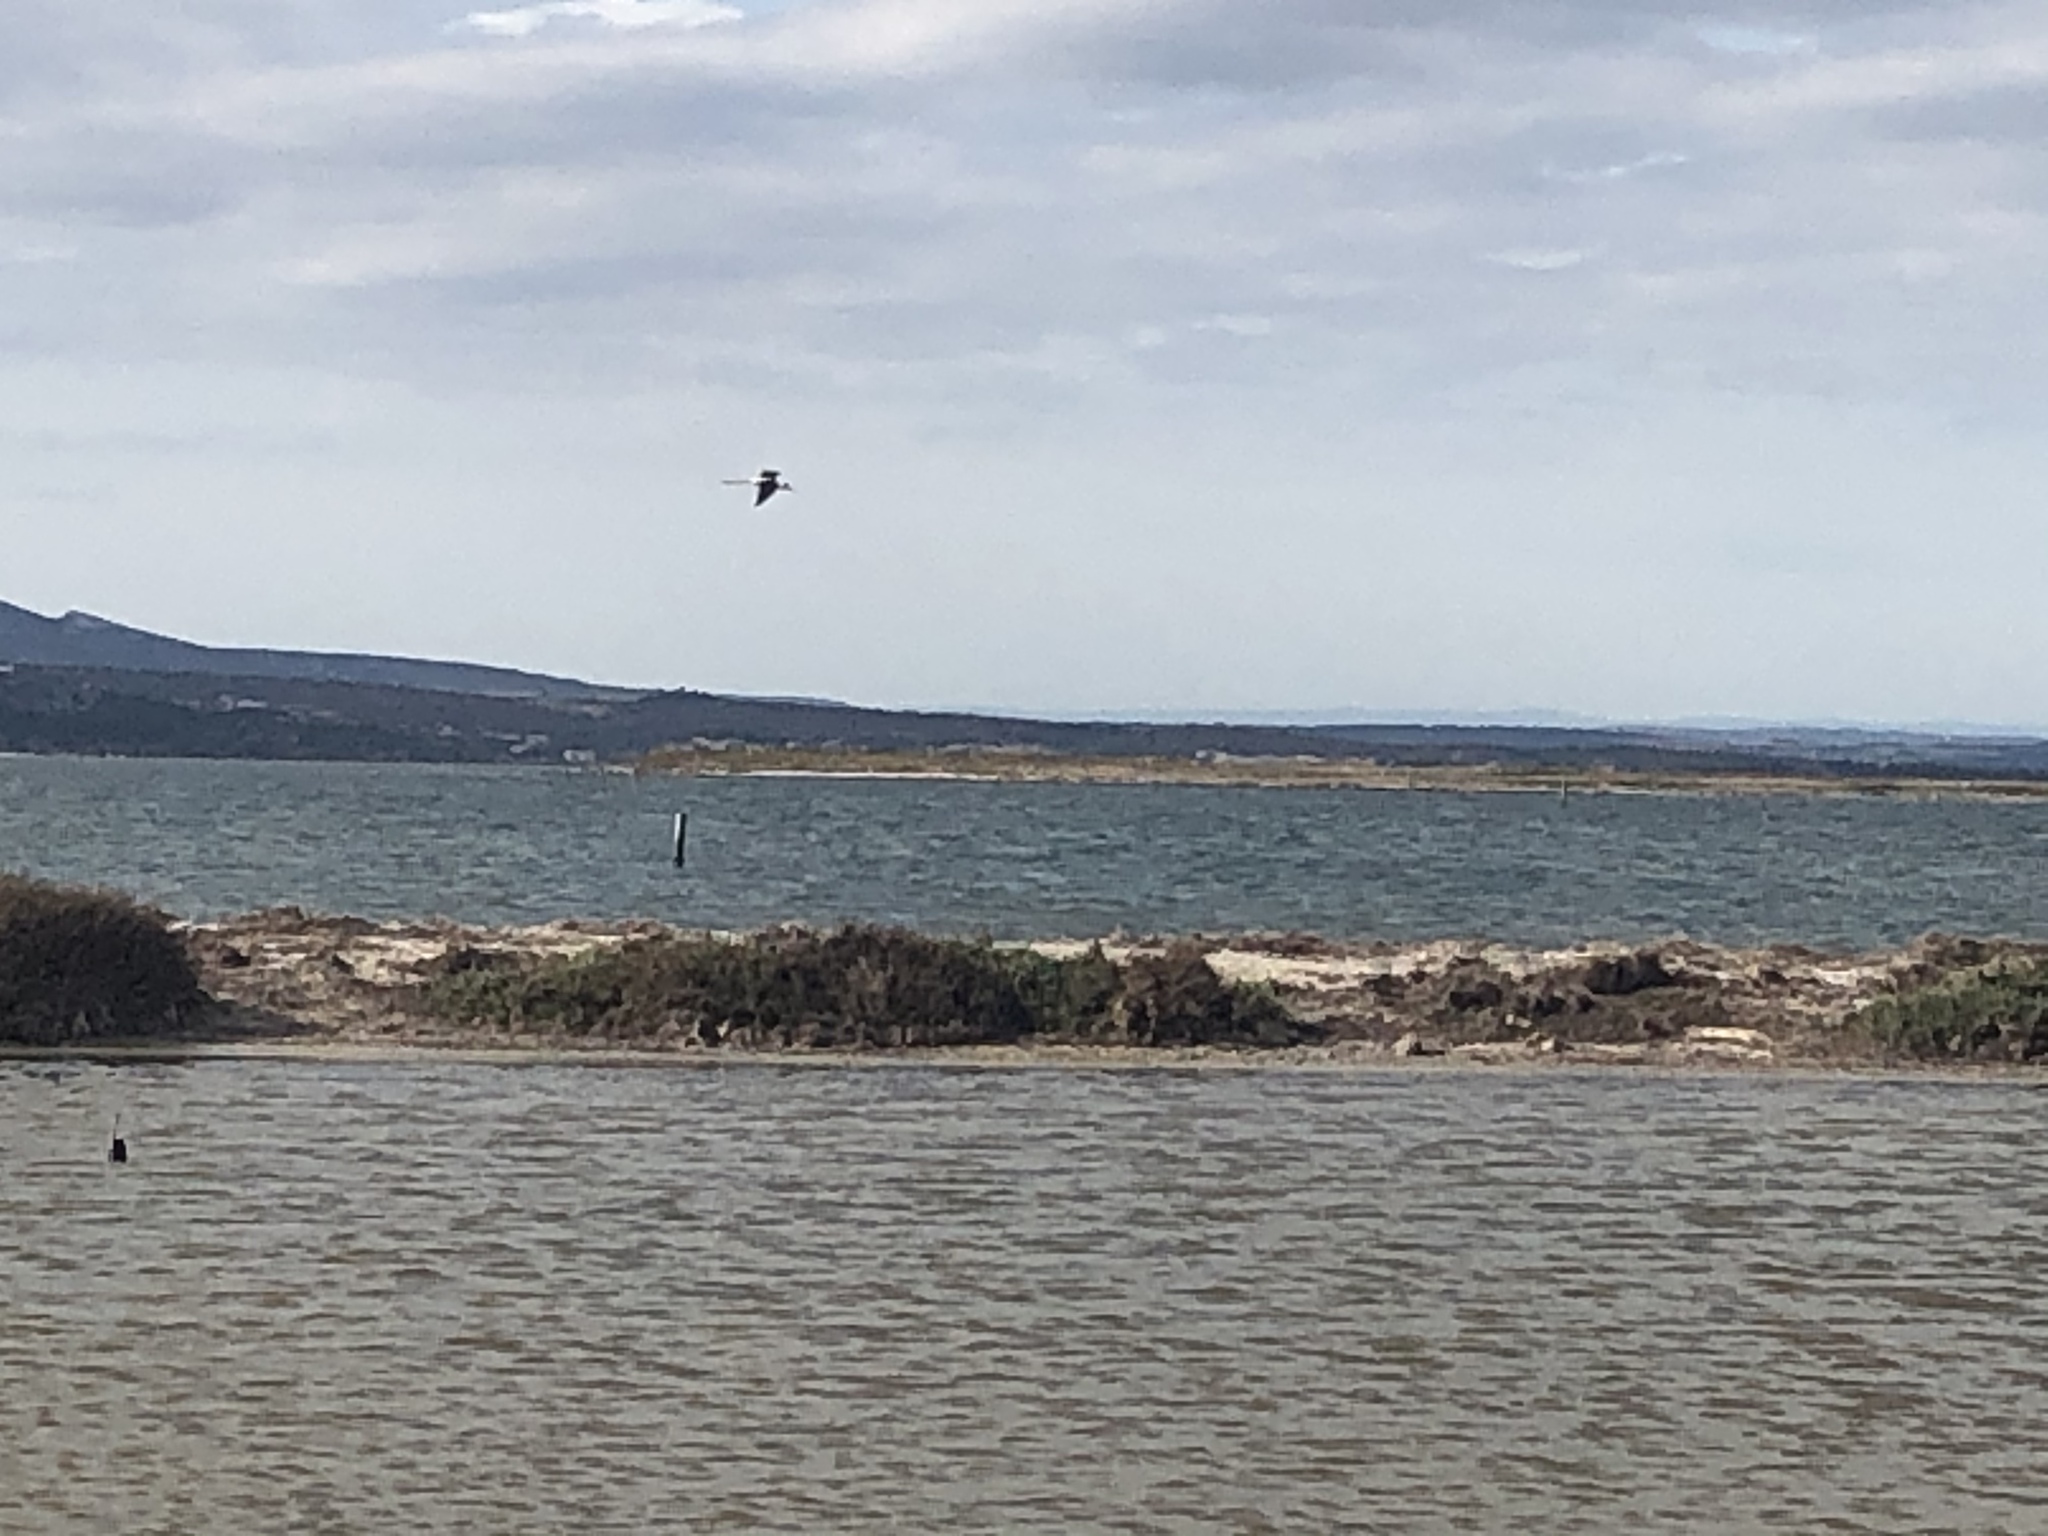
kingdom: Animalia
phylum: Chordata
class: Aves
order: Charadriiformes
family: Recurvirostridae
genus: Himantopus
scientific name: Himantopus himantopus
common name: Black-winged stilt
